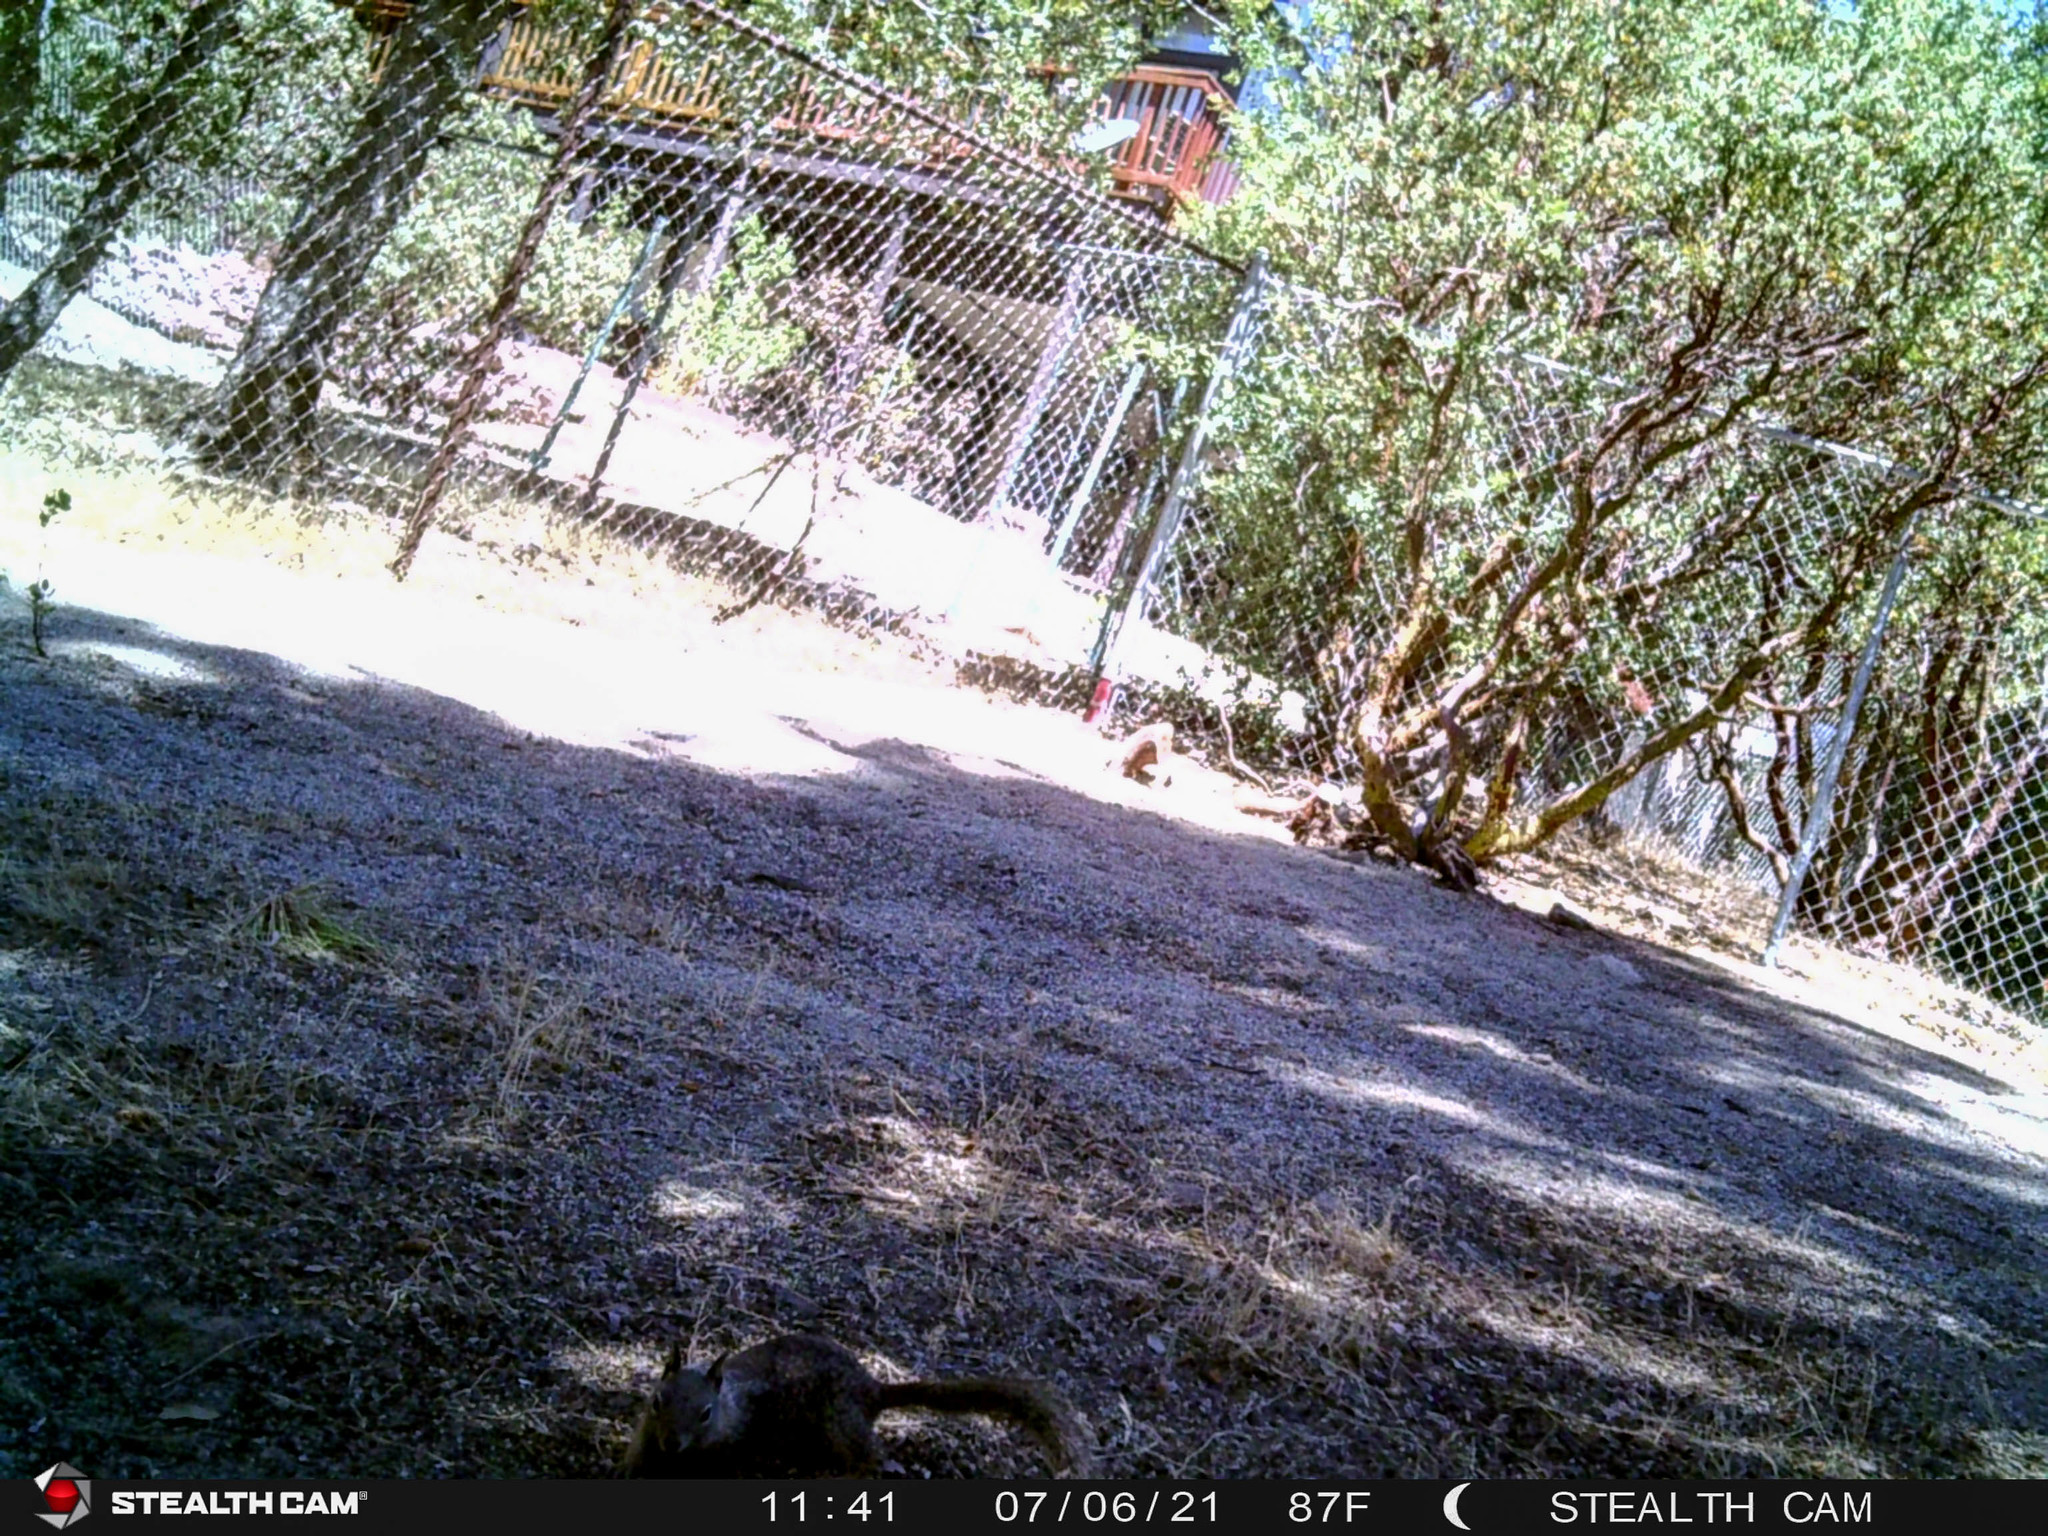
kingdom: Animalia
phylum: Chordata
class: Mammalia
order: Rodentia
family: Sciuridae
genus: Otospermophilus
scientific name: Otospermophilus beecheyi
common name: California ground squirrel
